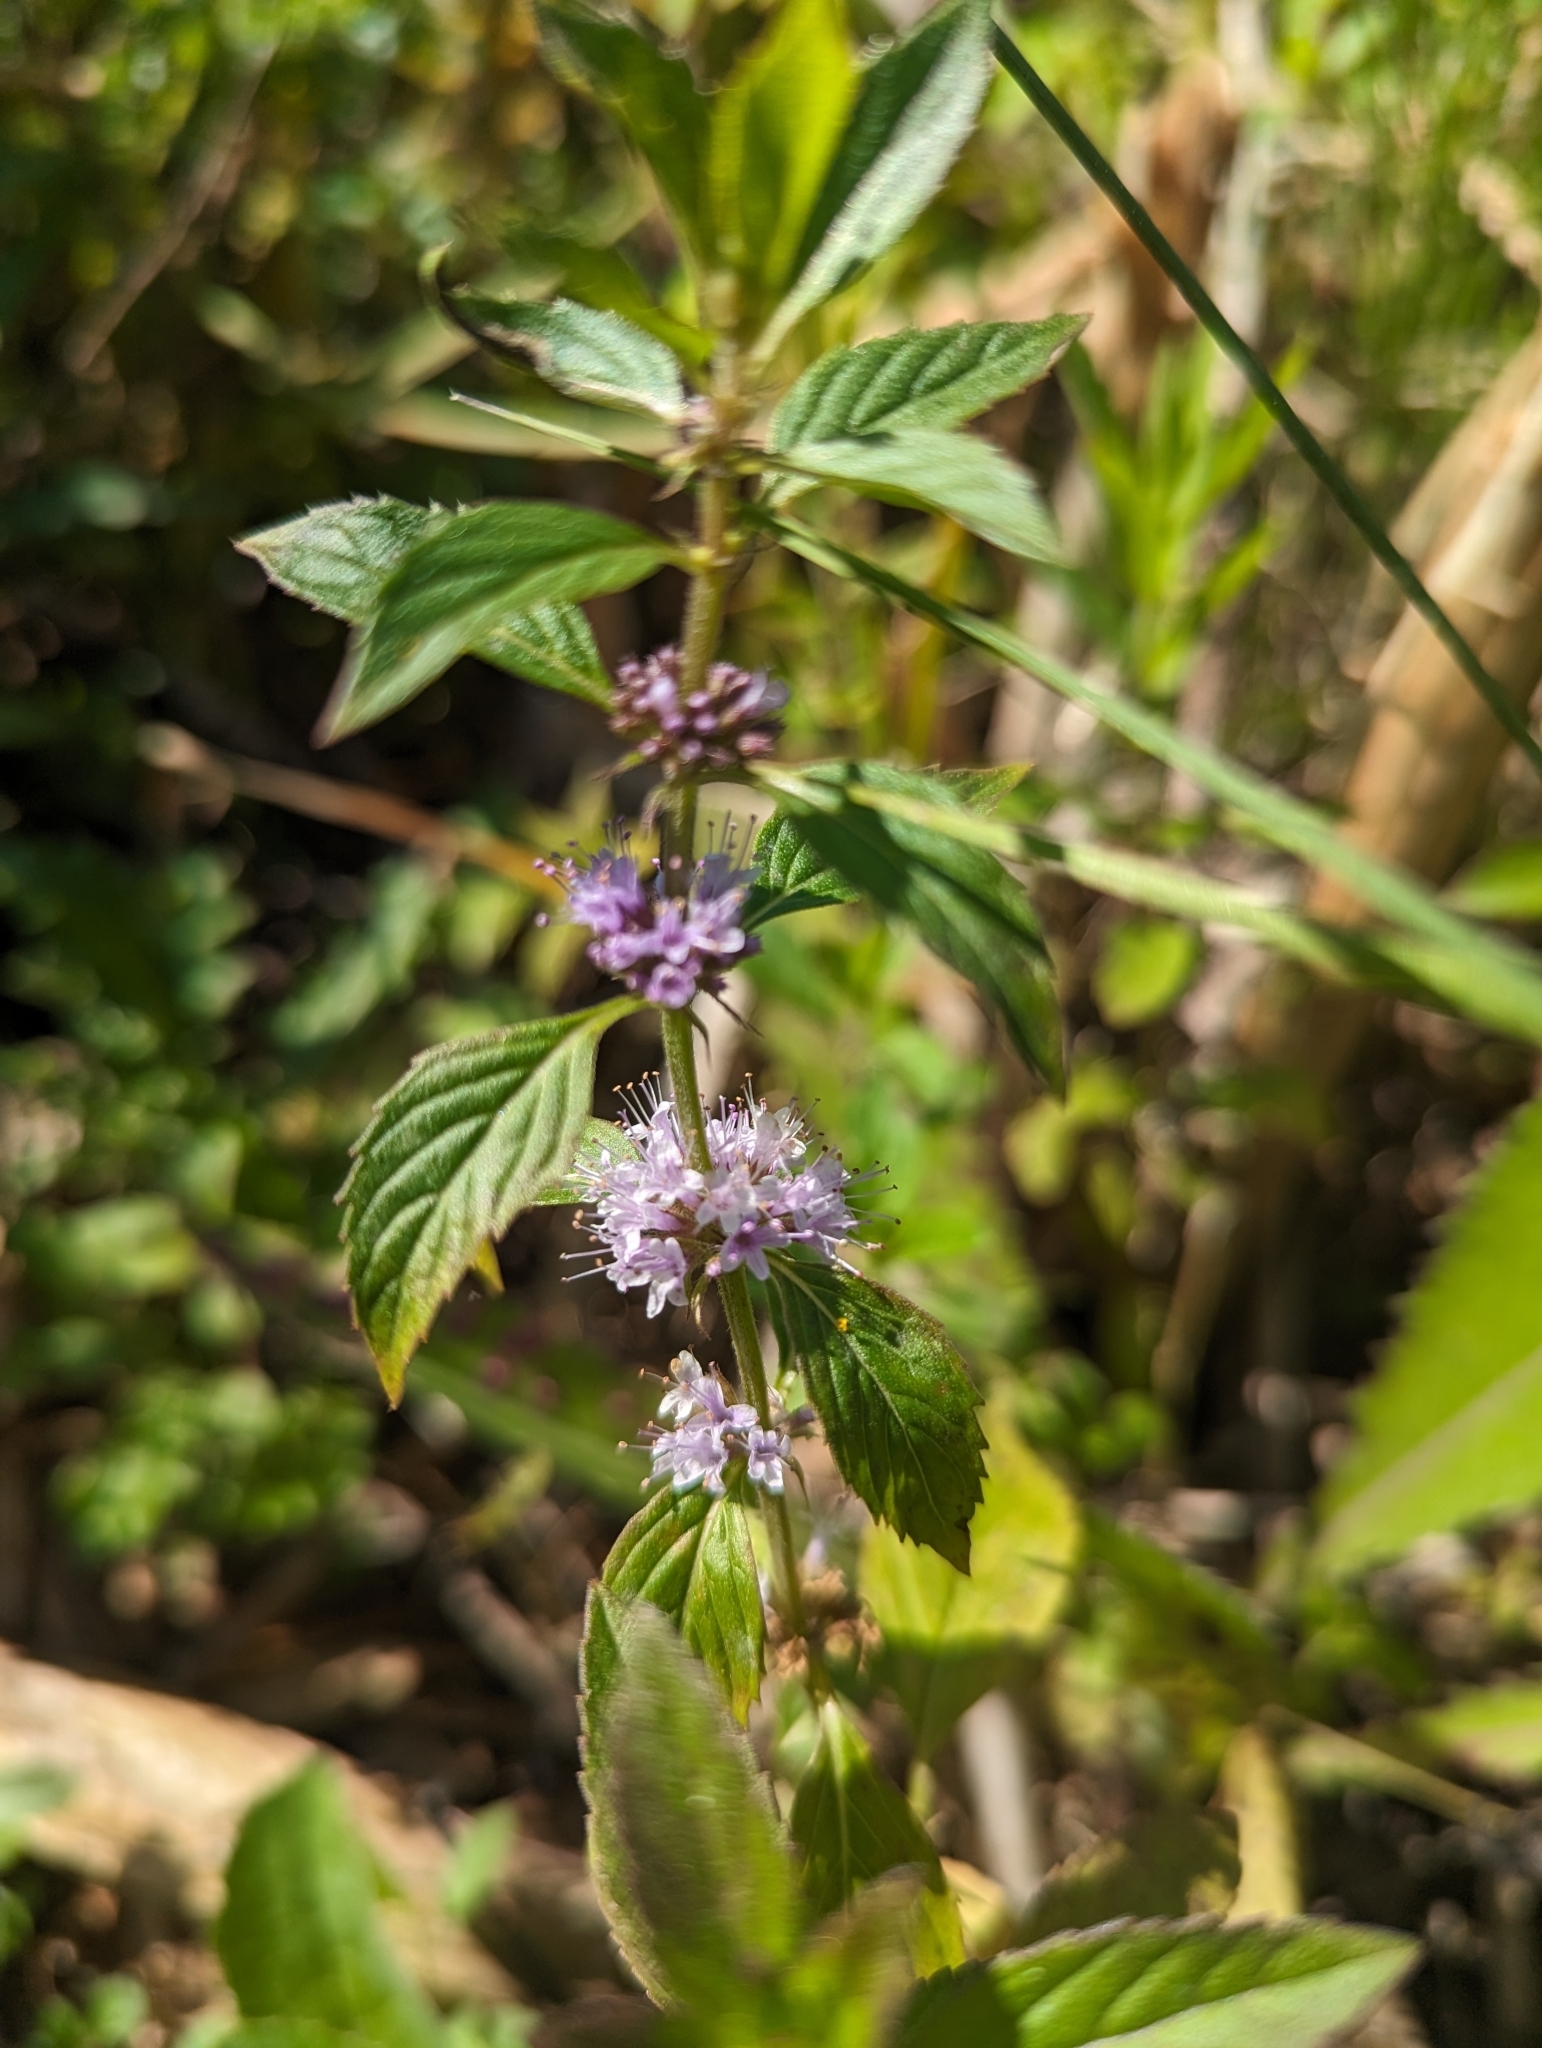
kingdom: Plantae
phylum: Tracheophyta
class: Magnoliopsida
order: Lamiales
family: Lamiaceae
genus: Mentha
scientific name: Mentha canadensis
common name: American corn mint
